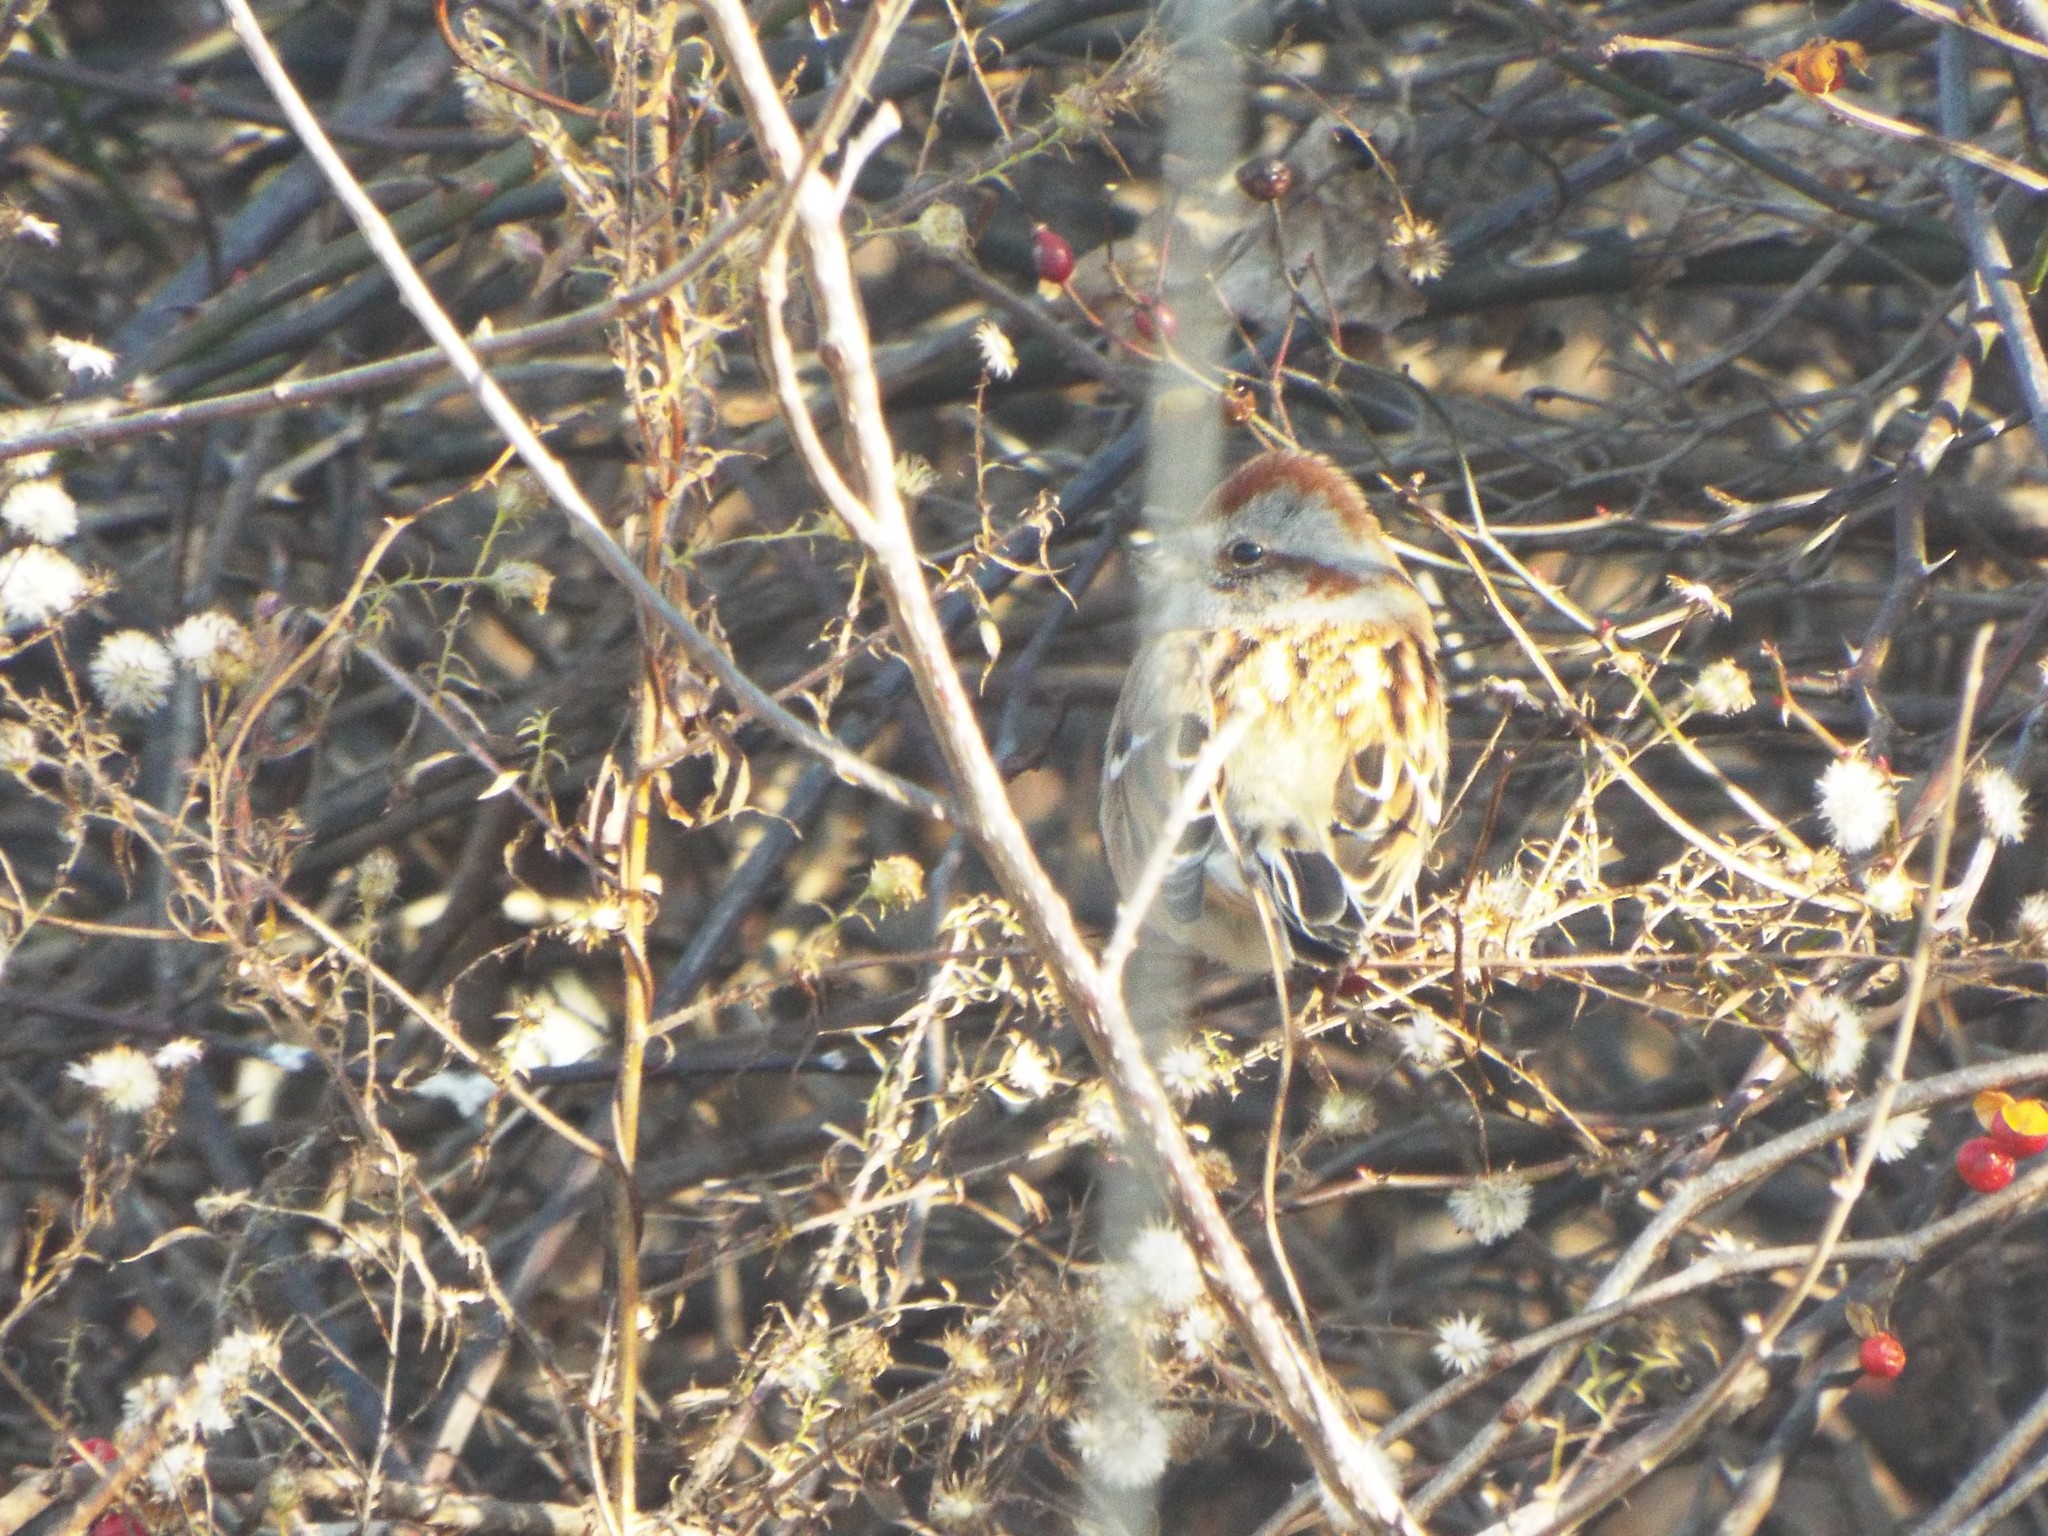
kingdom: Animalia
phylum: Chordata
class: Aves
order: Passeriformes
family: Passerellidae
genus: Spizelloides
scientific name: Spizelloides arborea
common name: American tree sparrow
